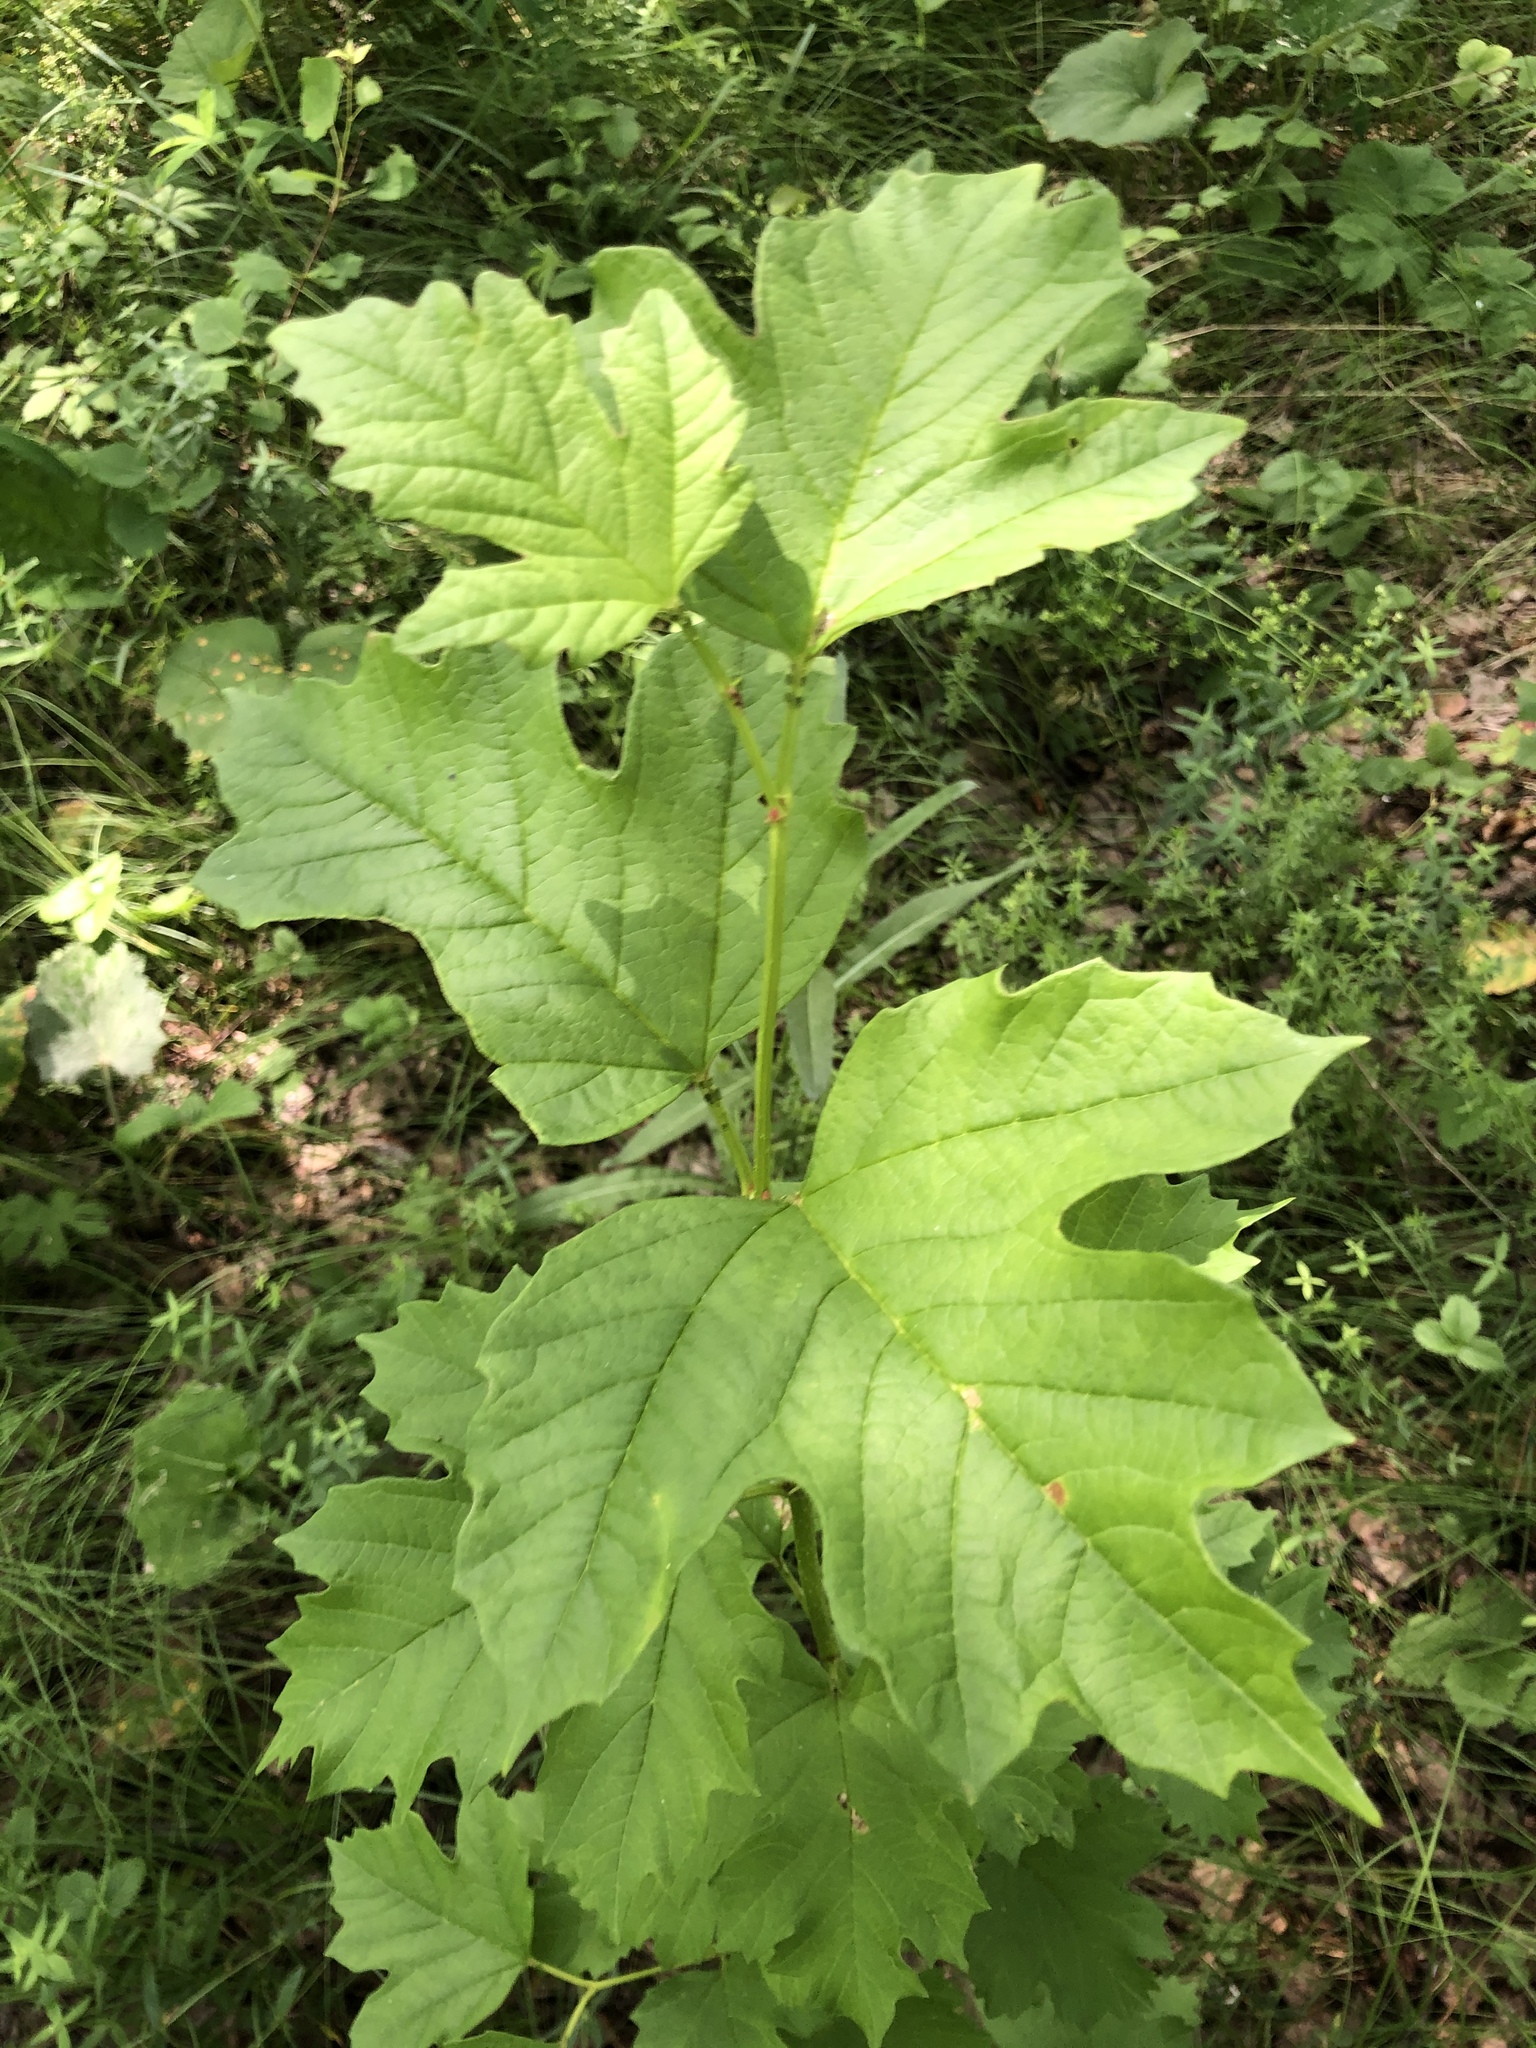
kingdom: Plantae
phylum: Tracheophyta
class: Magnoliopsida
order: Dipsacales
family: Viburnaceae
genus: Viburnum
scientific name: Viburnum opulus
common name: Guelder-rose
